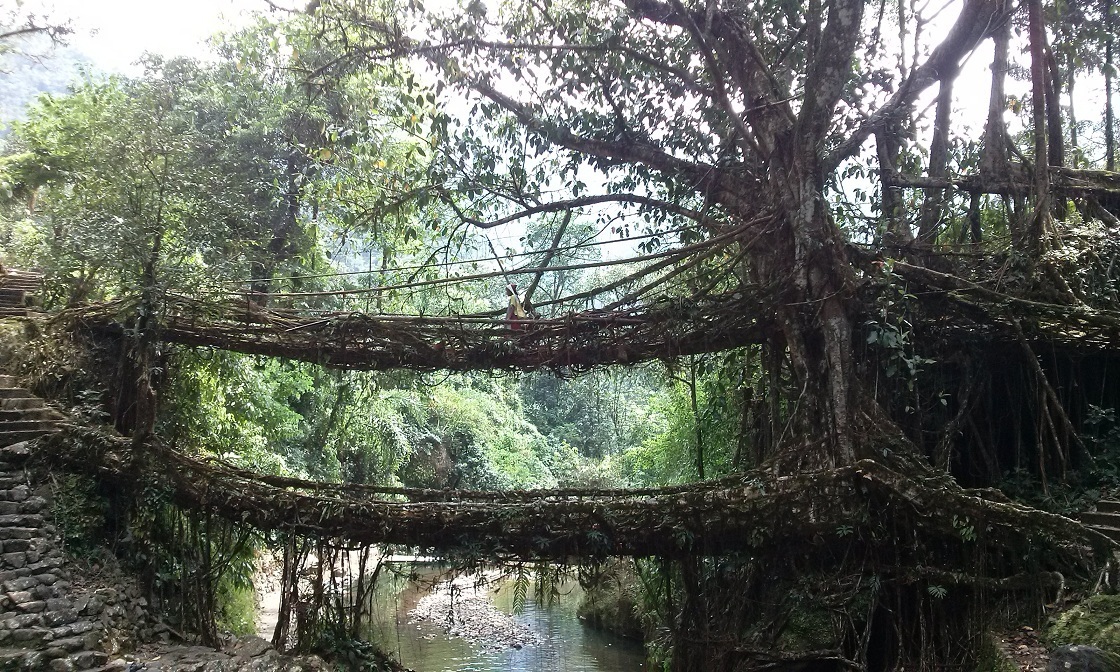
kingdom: Plantae
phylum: Tracheophyta
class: Magnoliopsida
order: Rosales
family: Moraceae
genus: Ficus
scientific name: Ficus elastica
